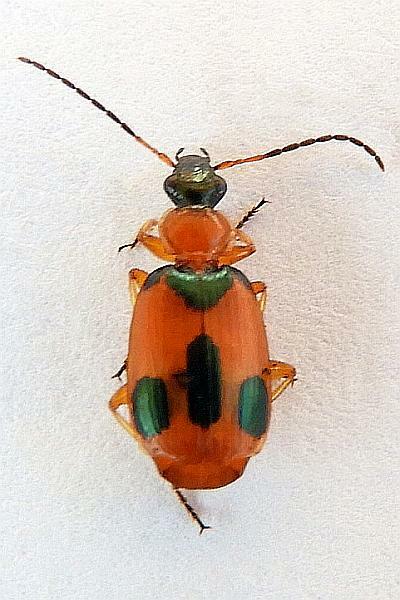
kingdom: Animalia
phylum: Arthropoda
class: Insecta
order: Coleoptera
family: Carabidae
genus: Lebia
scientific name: Lebia pulchella
